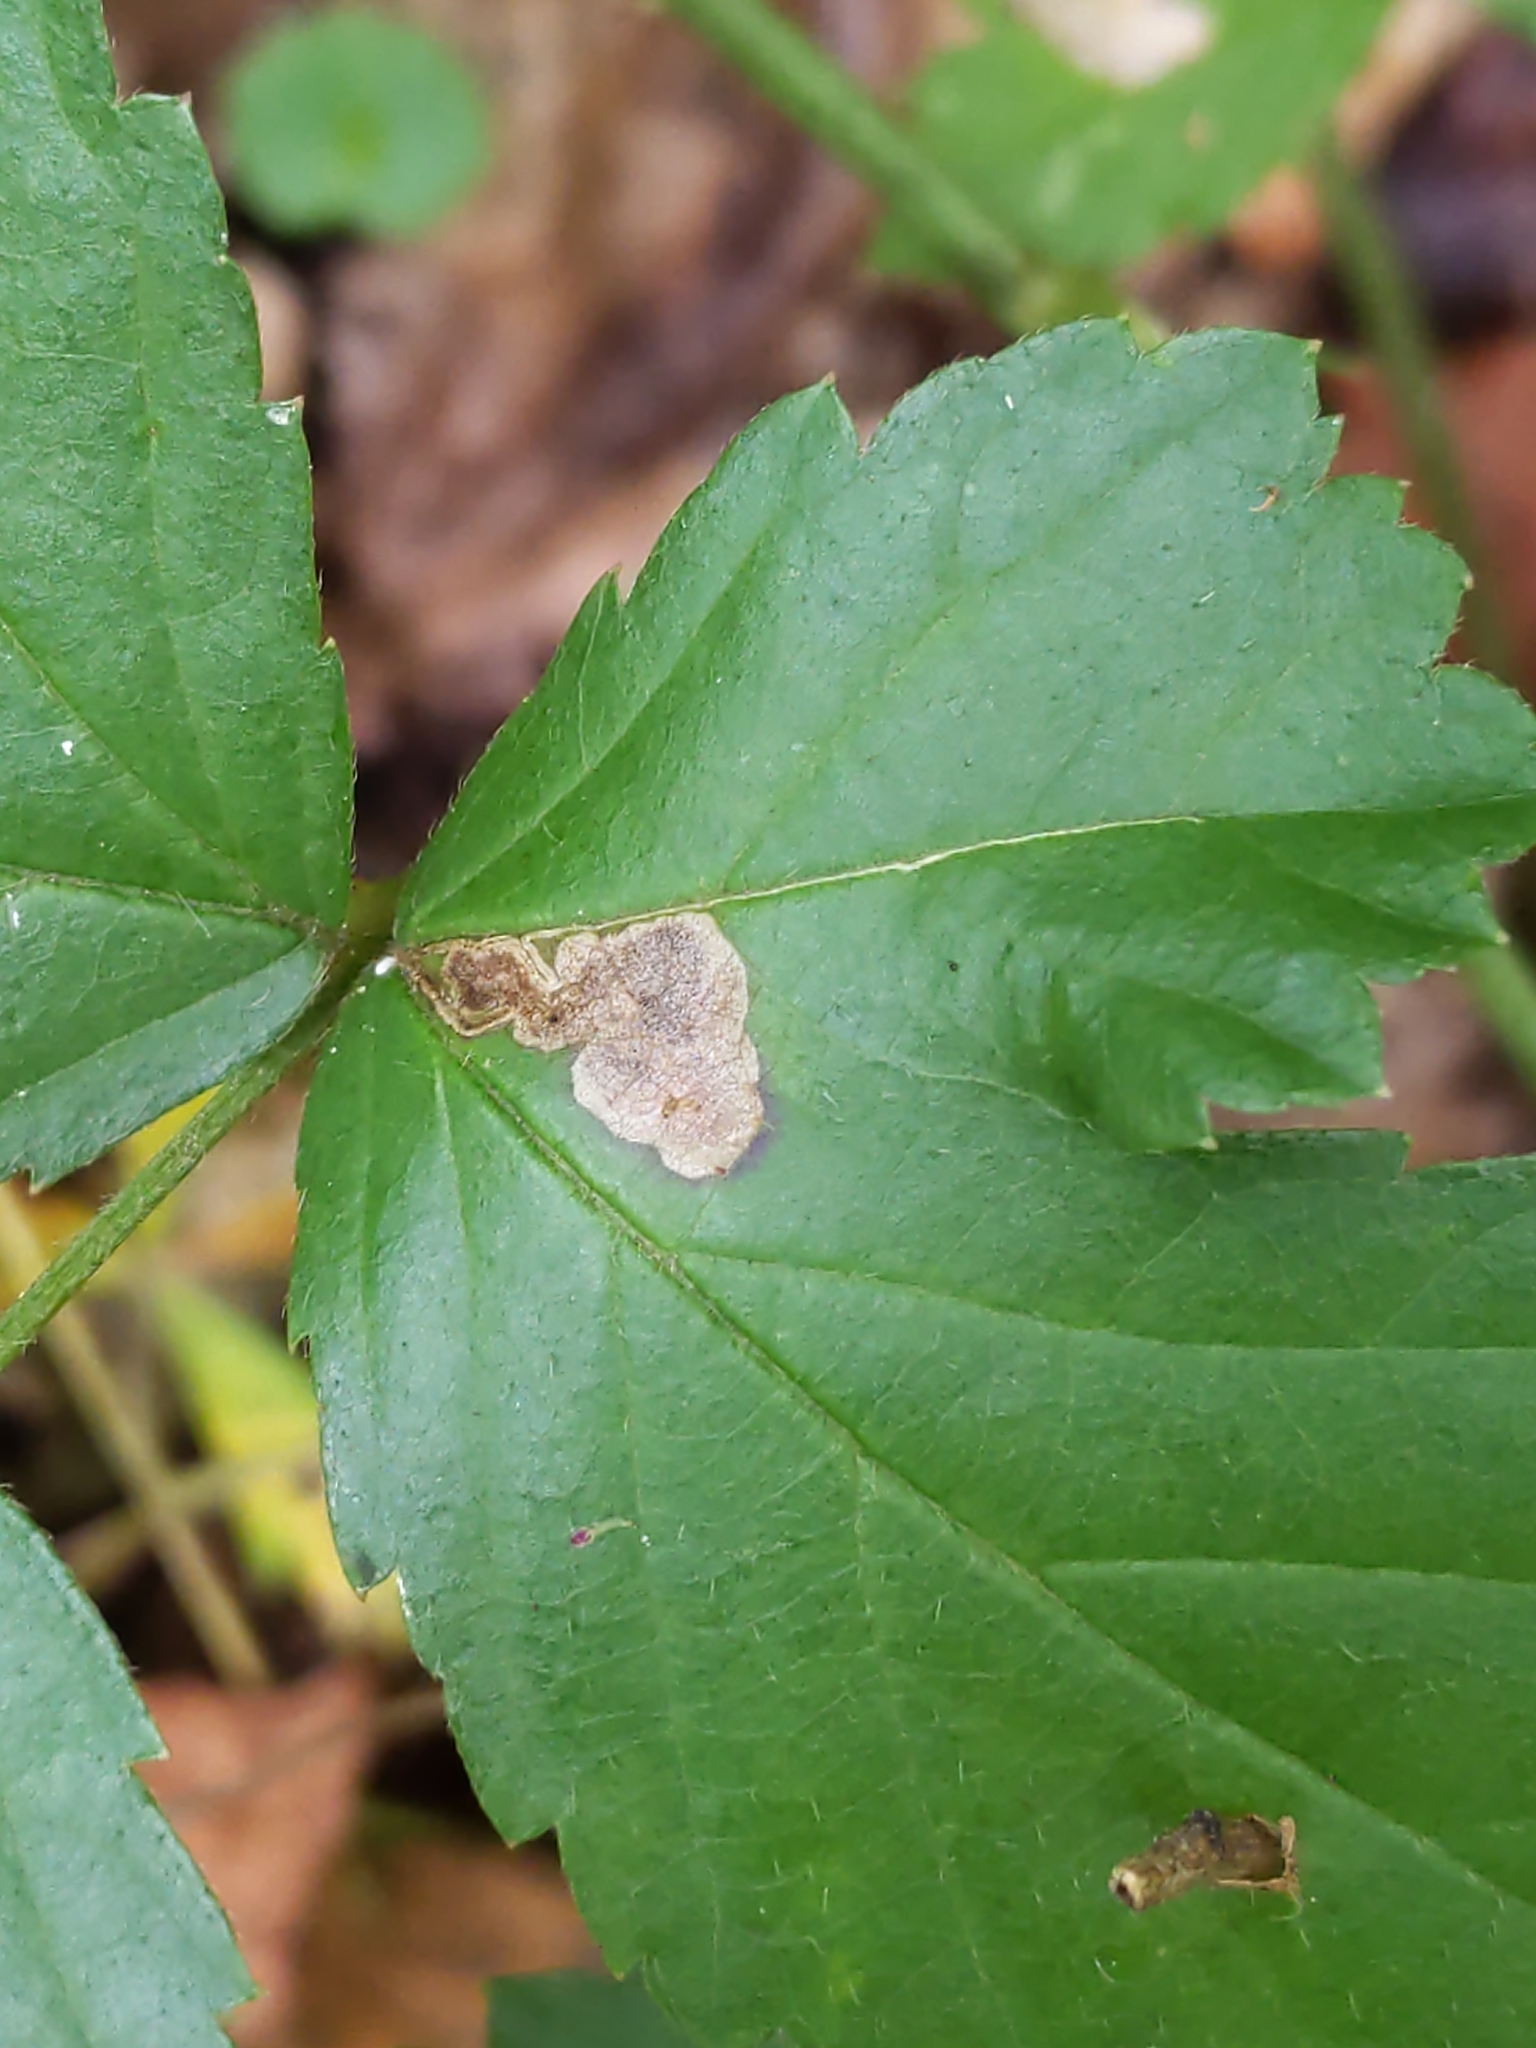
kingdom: Animalia
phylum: Arthropoda
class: Insecta
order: Lepidoptera
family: Nepticulidae
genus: Ectoedemia
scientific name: Ectoedemia rubifoliella
